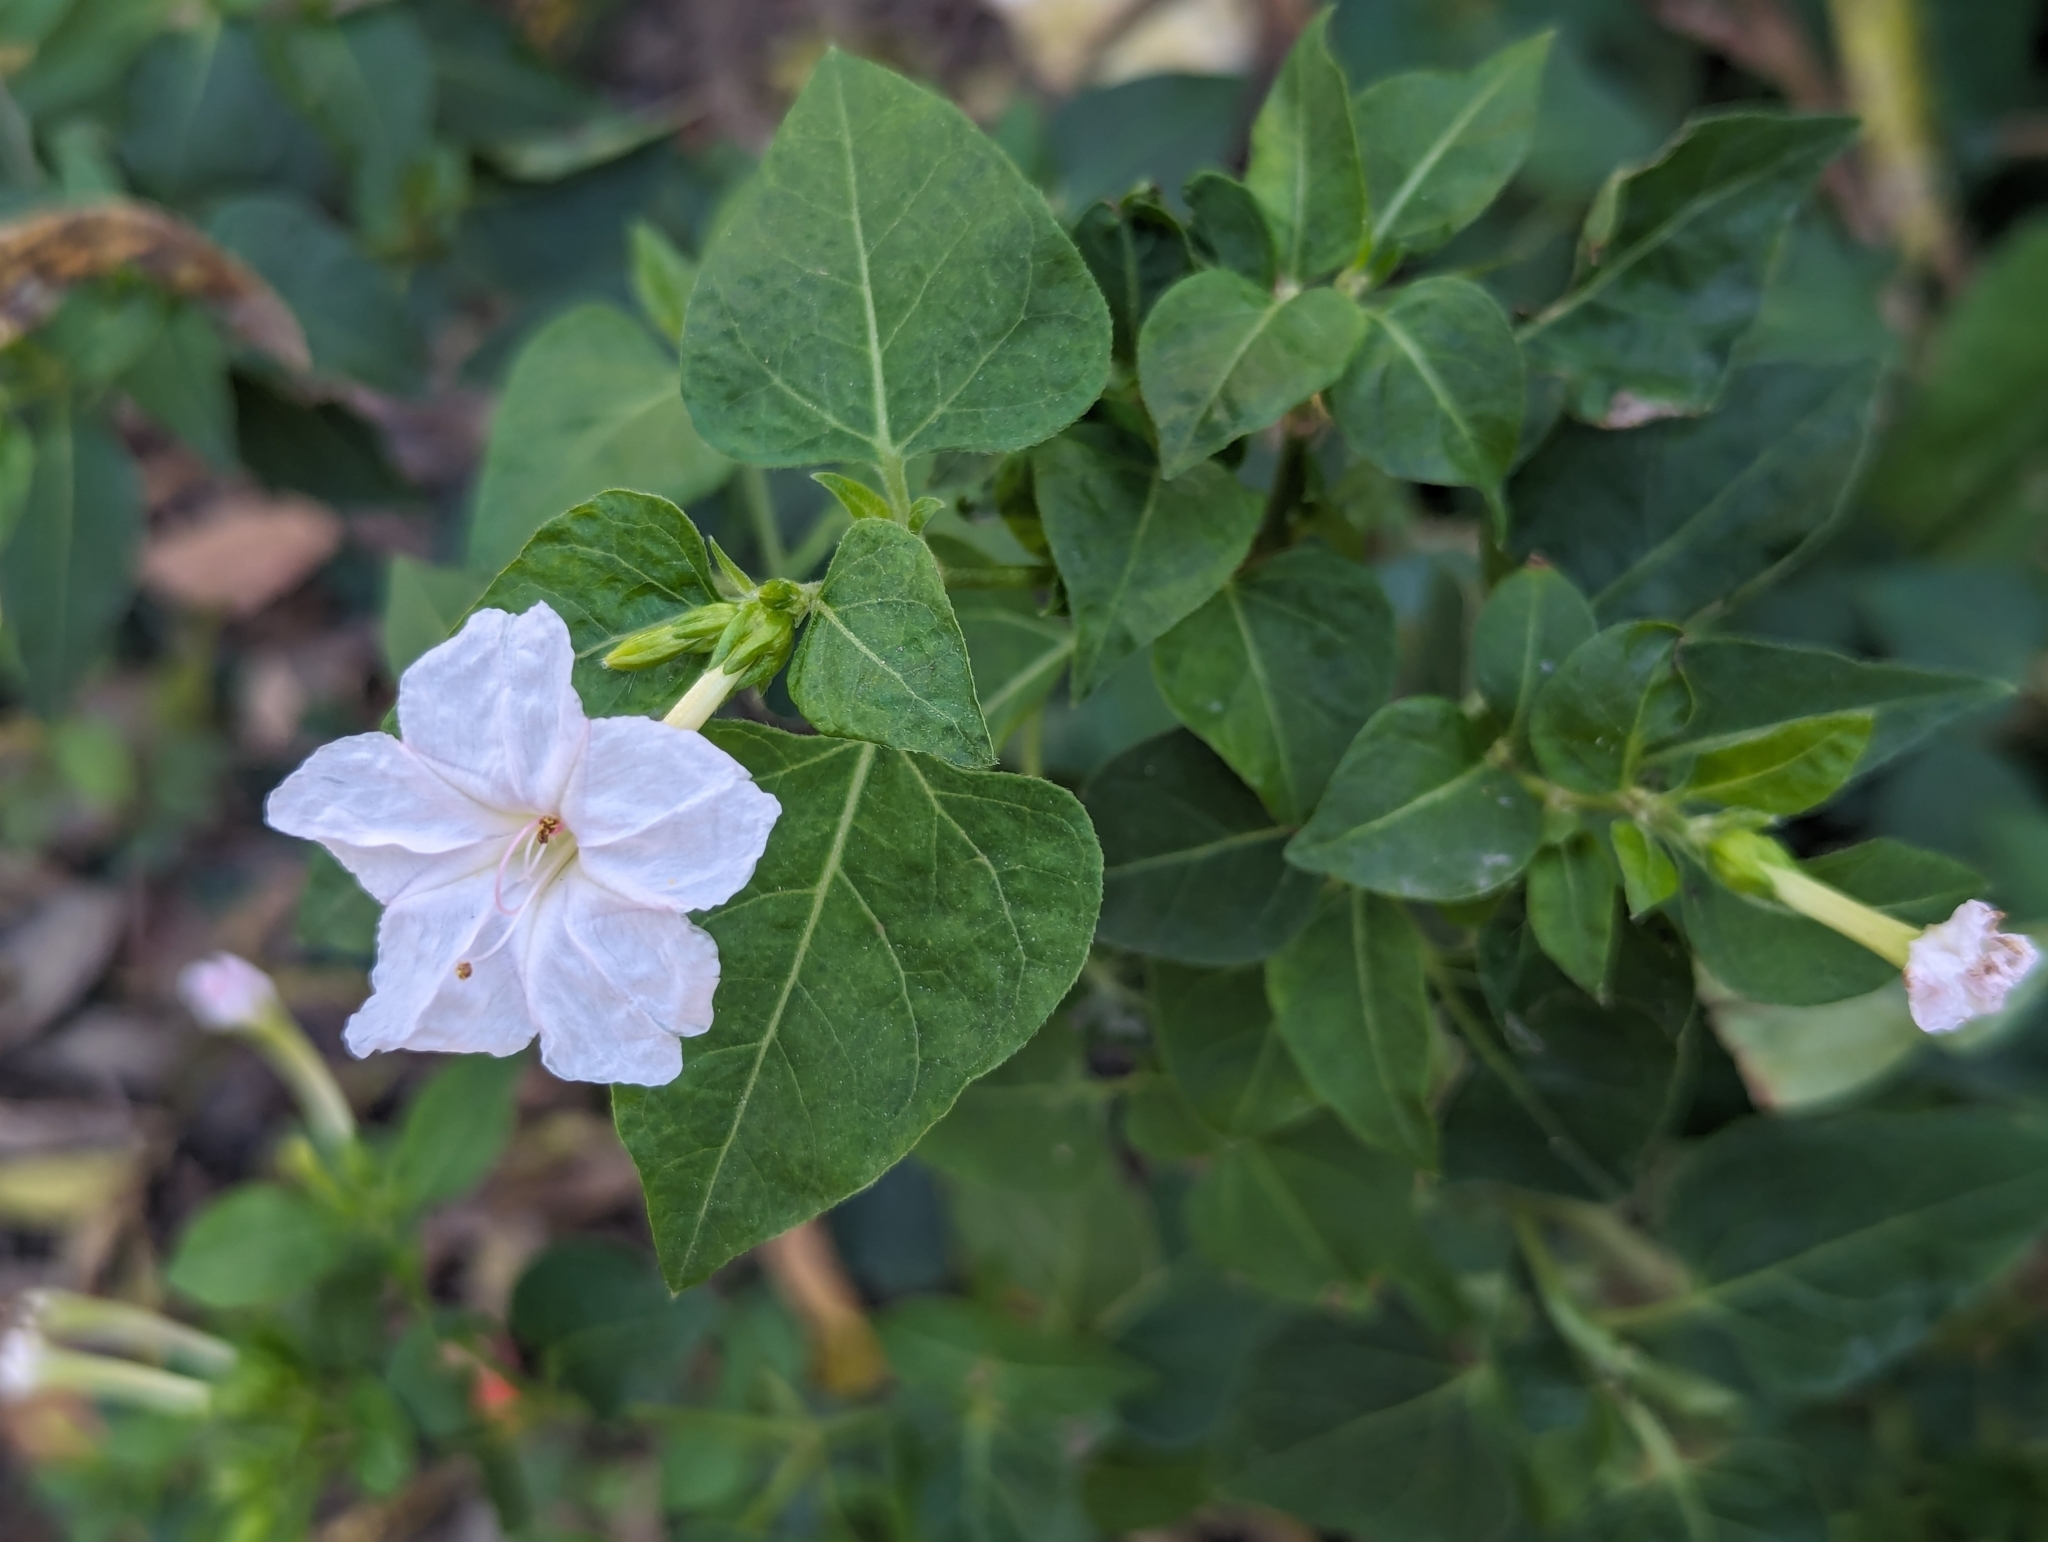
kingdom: Plantae
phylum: Tracheophyta
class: Magnoliopsida
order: Caryophyllales
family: Nyctaginaceae
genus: Mirabilis
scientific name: Mirabilis jalapa
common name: Marvel-of-peru
